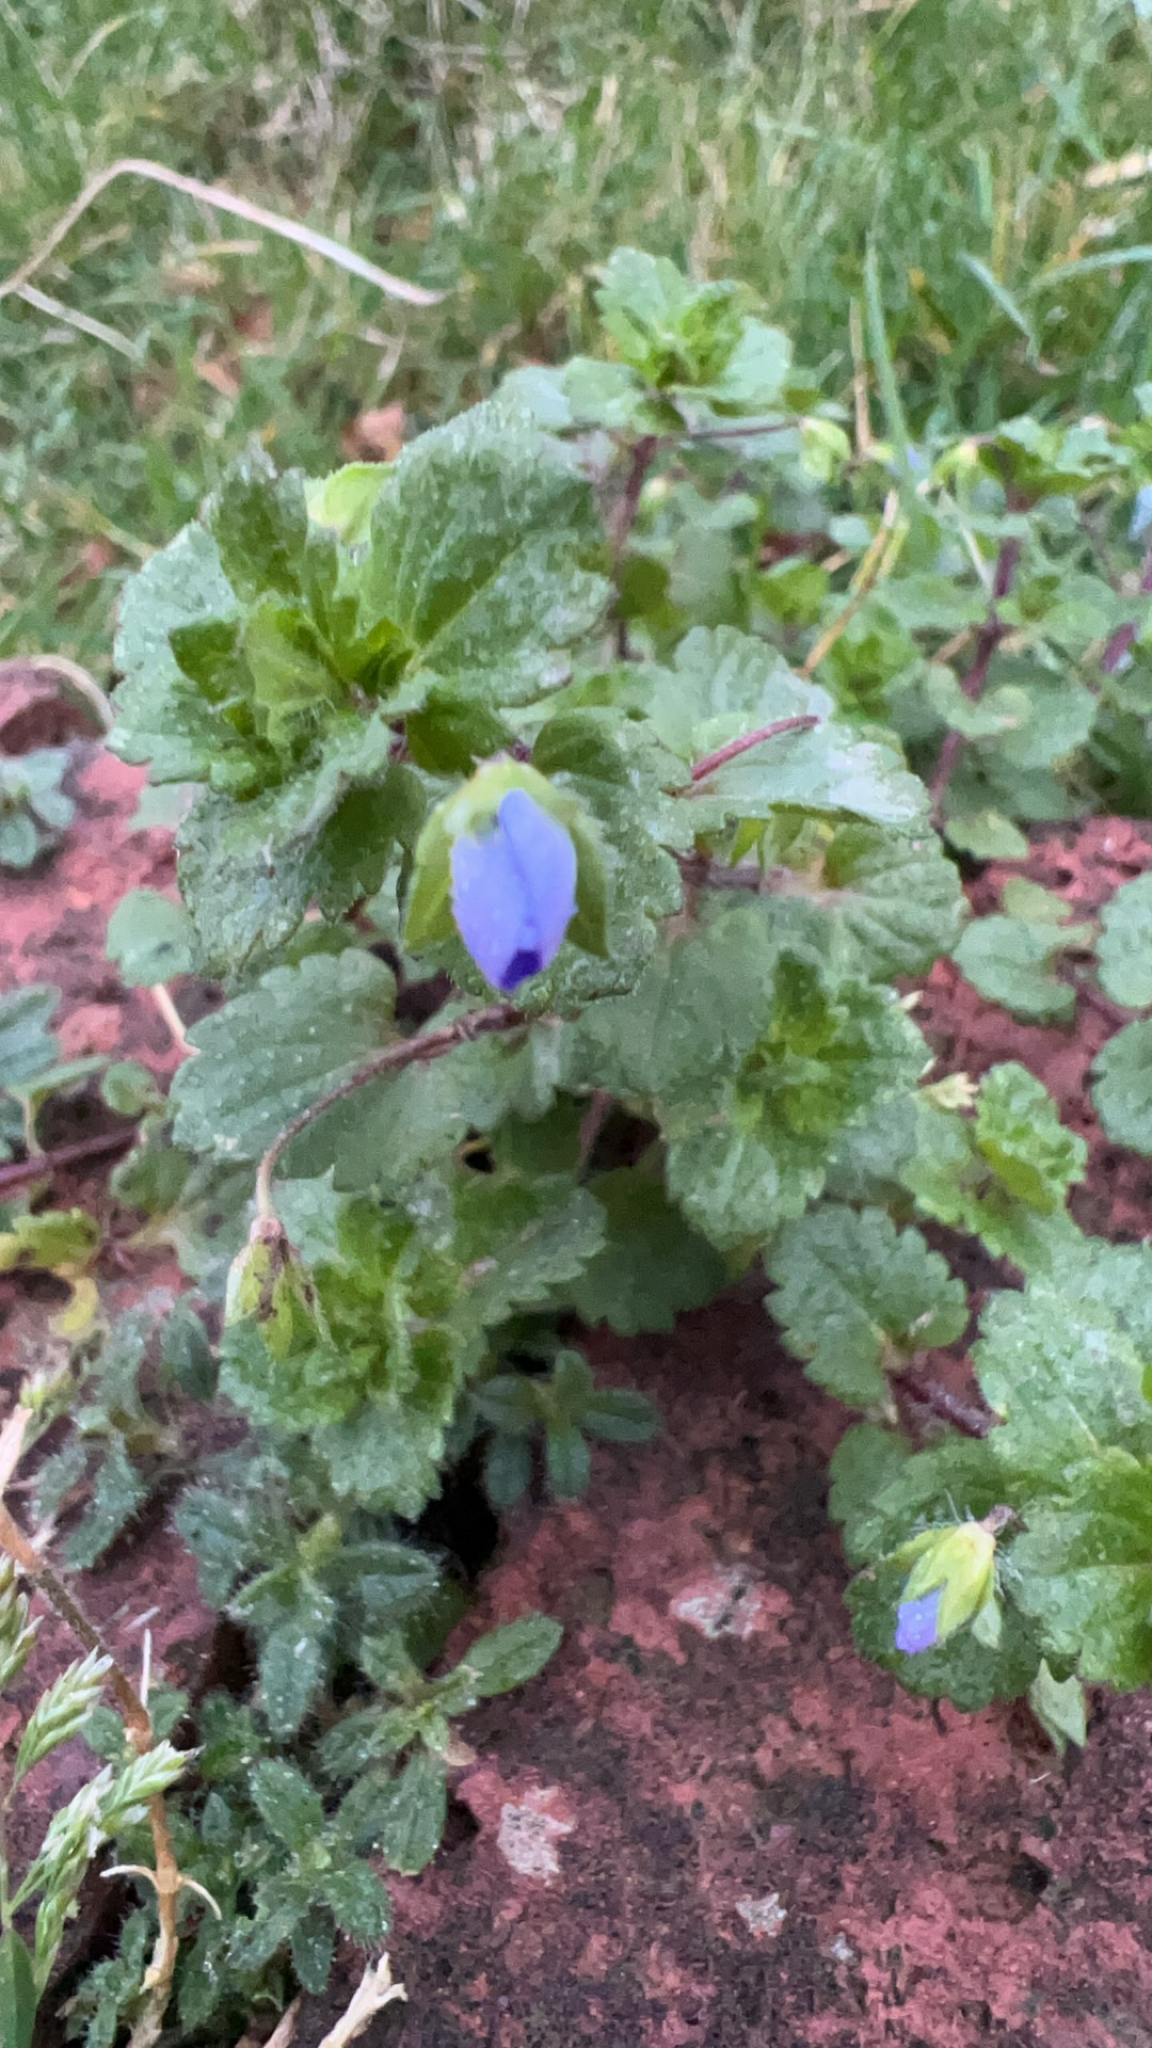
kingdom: Plantae
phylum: Tracheophyta
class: Magnoliopsida
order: Lamiales
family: Plantaginaceae
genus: Veronica
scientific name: Veronica persica
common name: Common field-speedwell
